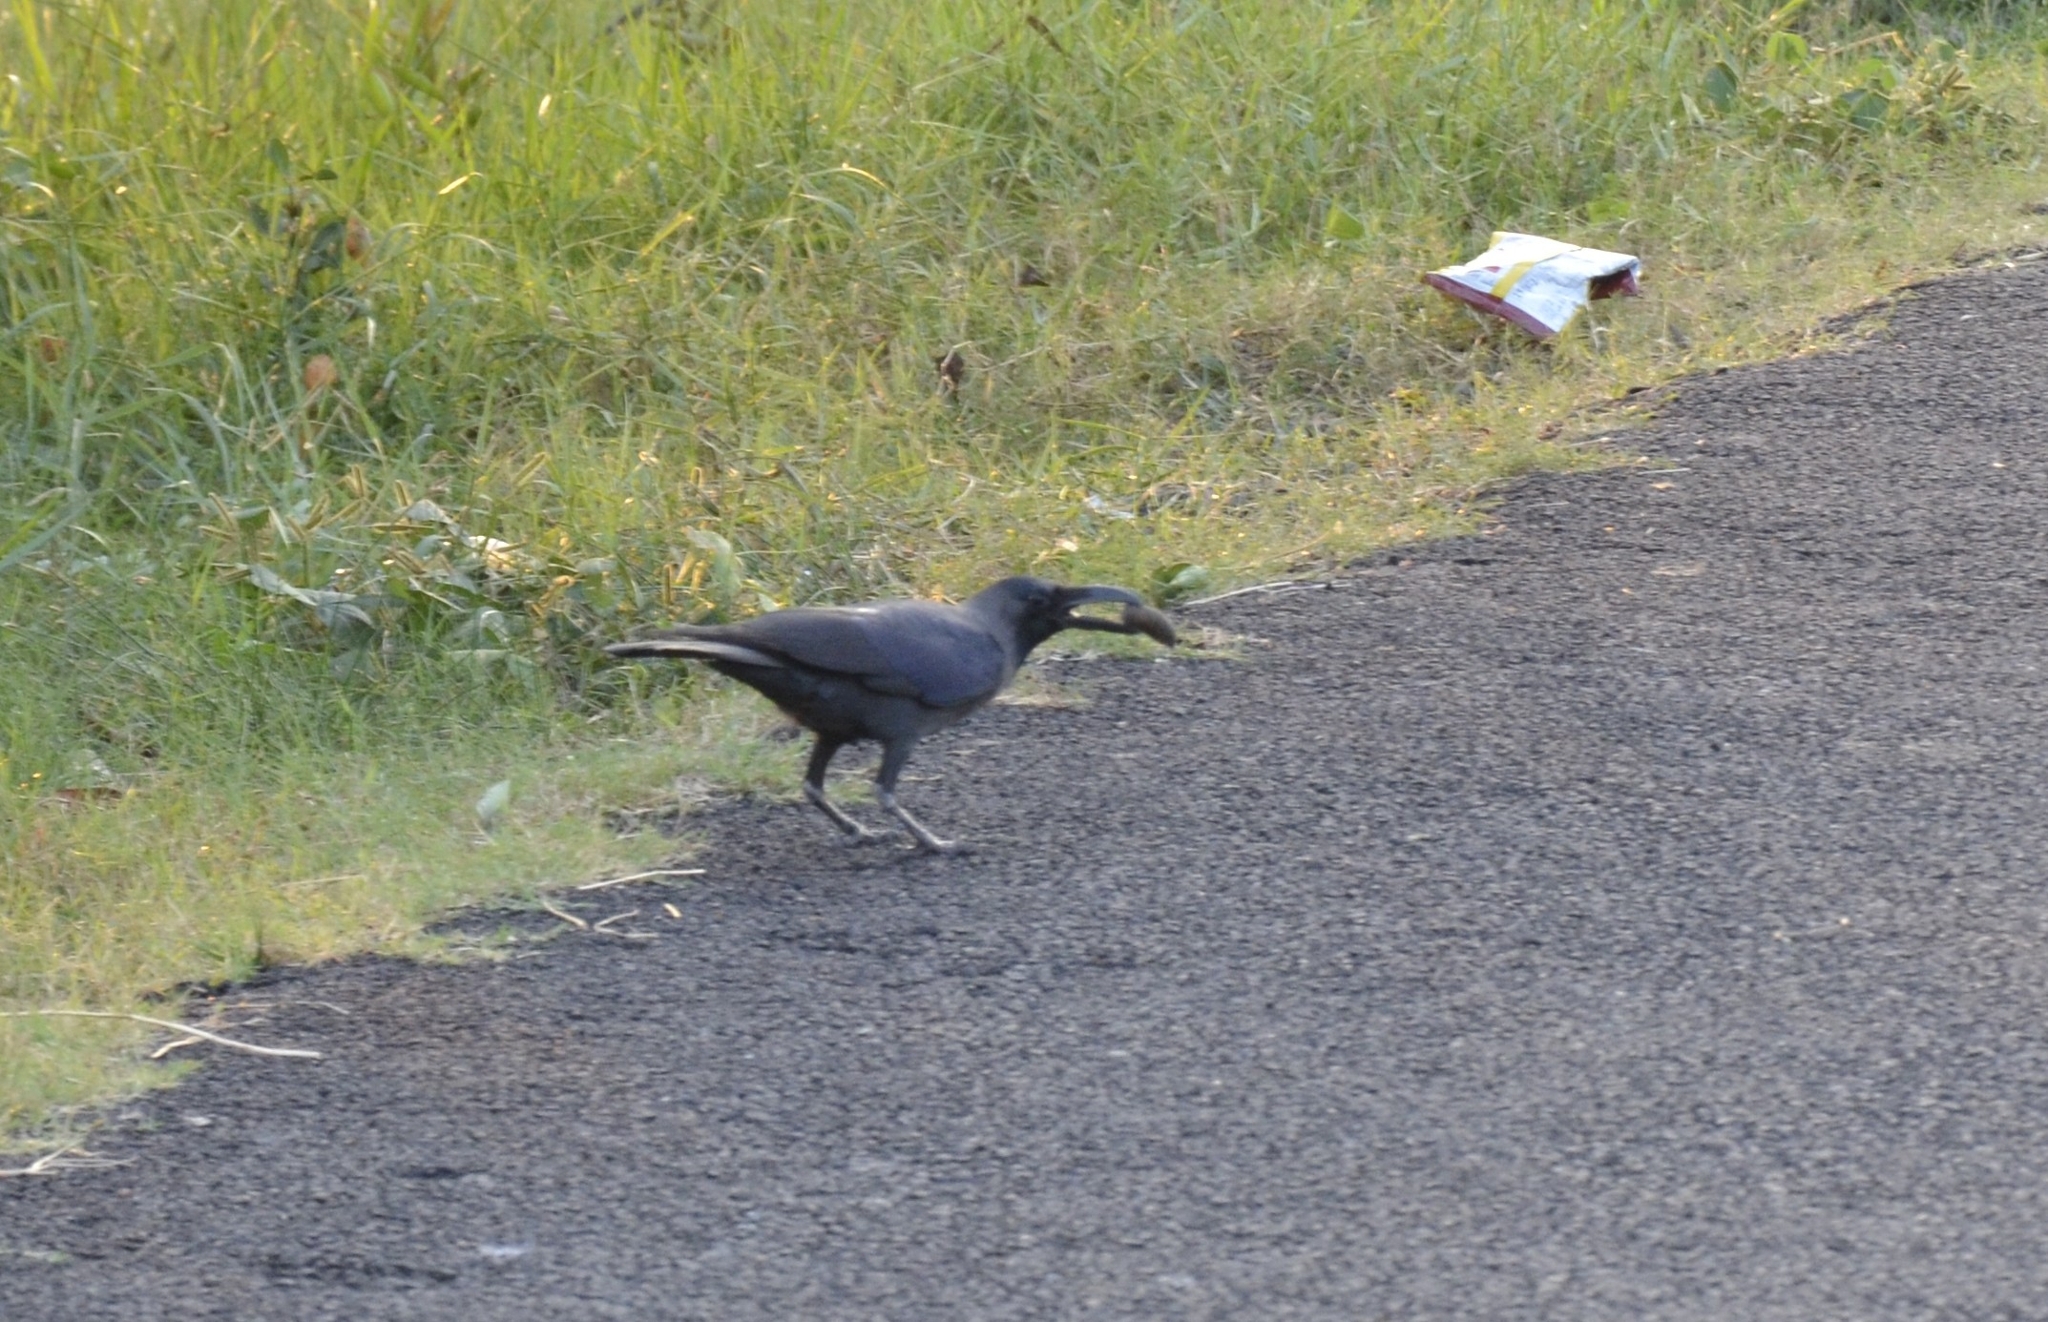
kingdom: Animalia
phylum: Chordata
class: Aves
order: Passeriformes
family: Corvidae
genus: Corvus
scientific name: Corvus splendens
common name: House crow
